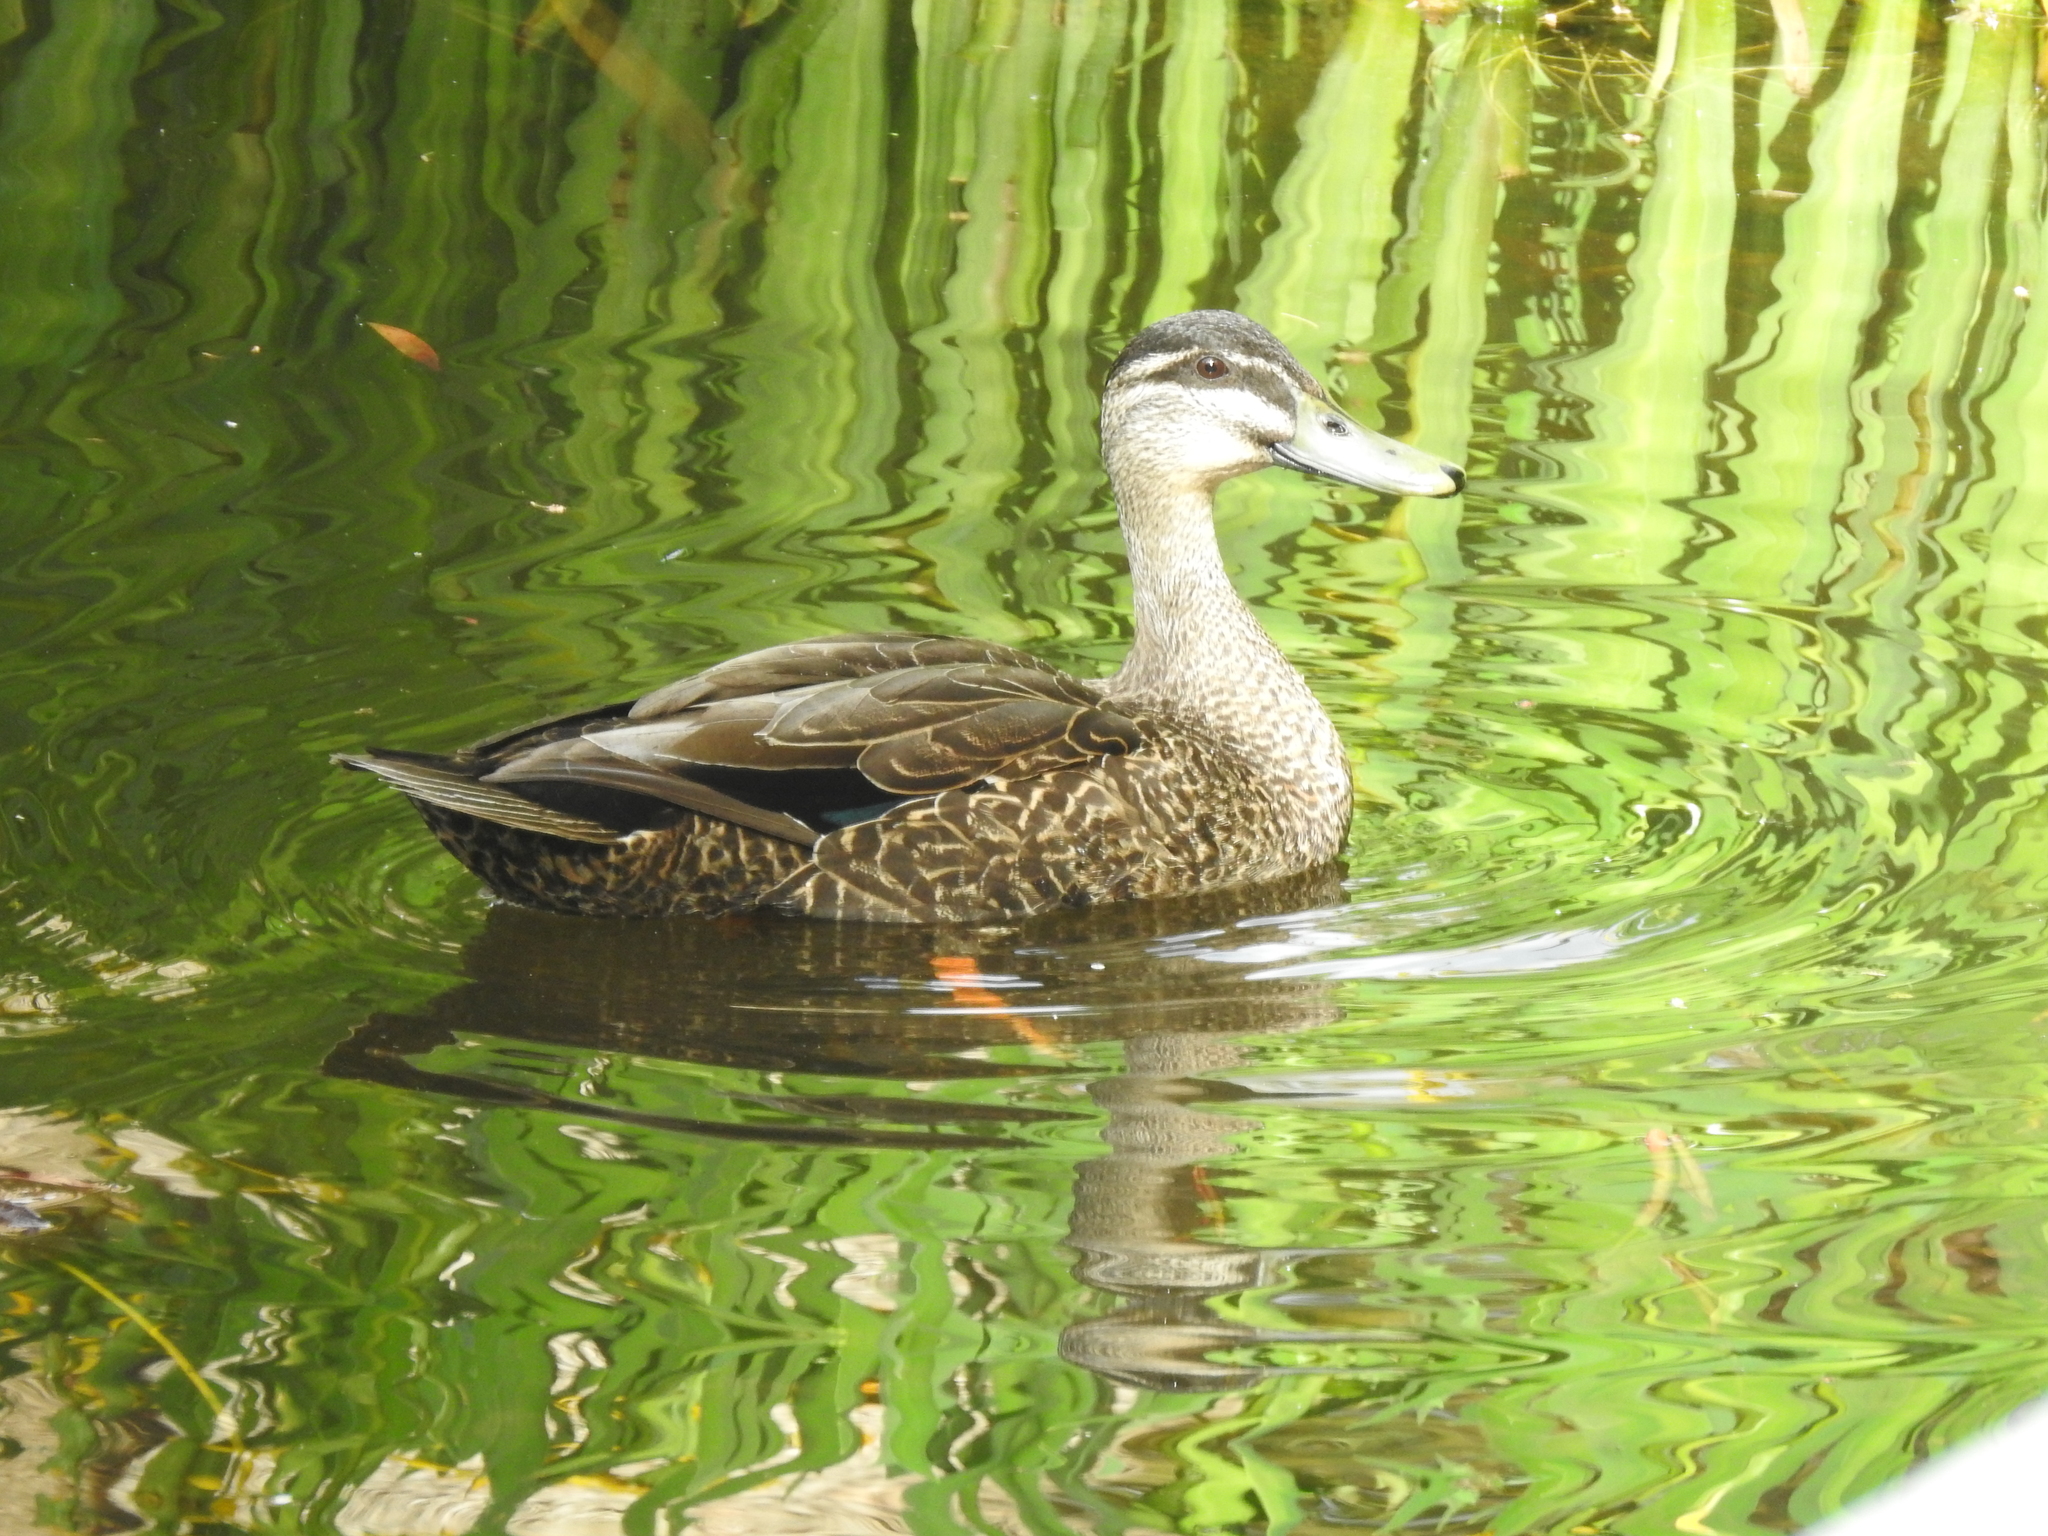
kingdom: Animalia
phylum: Chordata
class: Aves
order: Anseriformes
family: Anatidae
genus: Anas
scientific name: Anas
